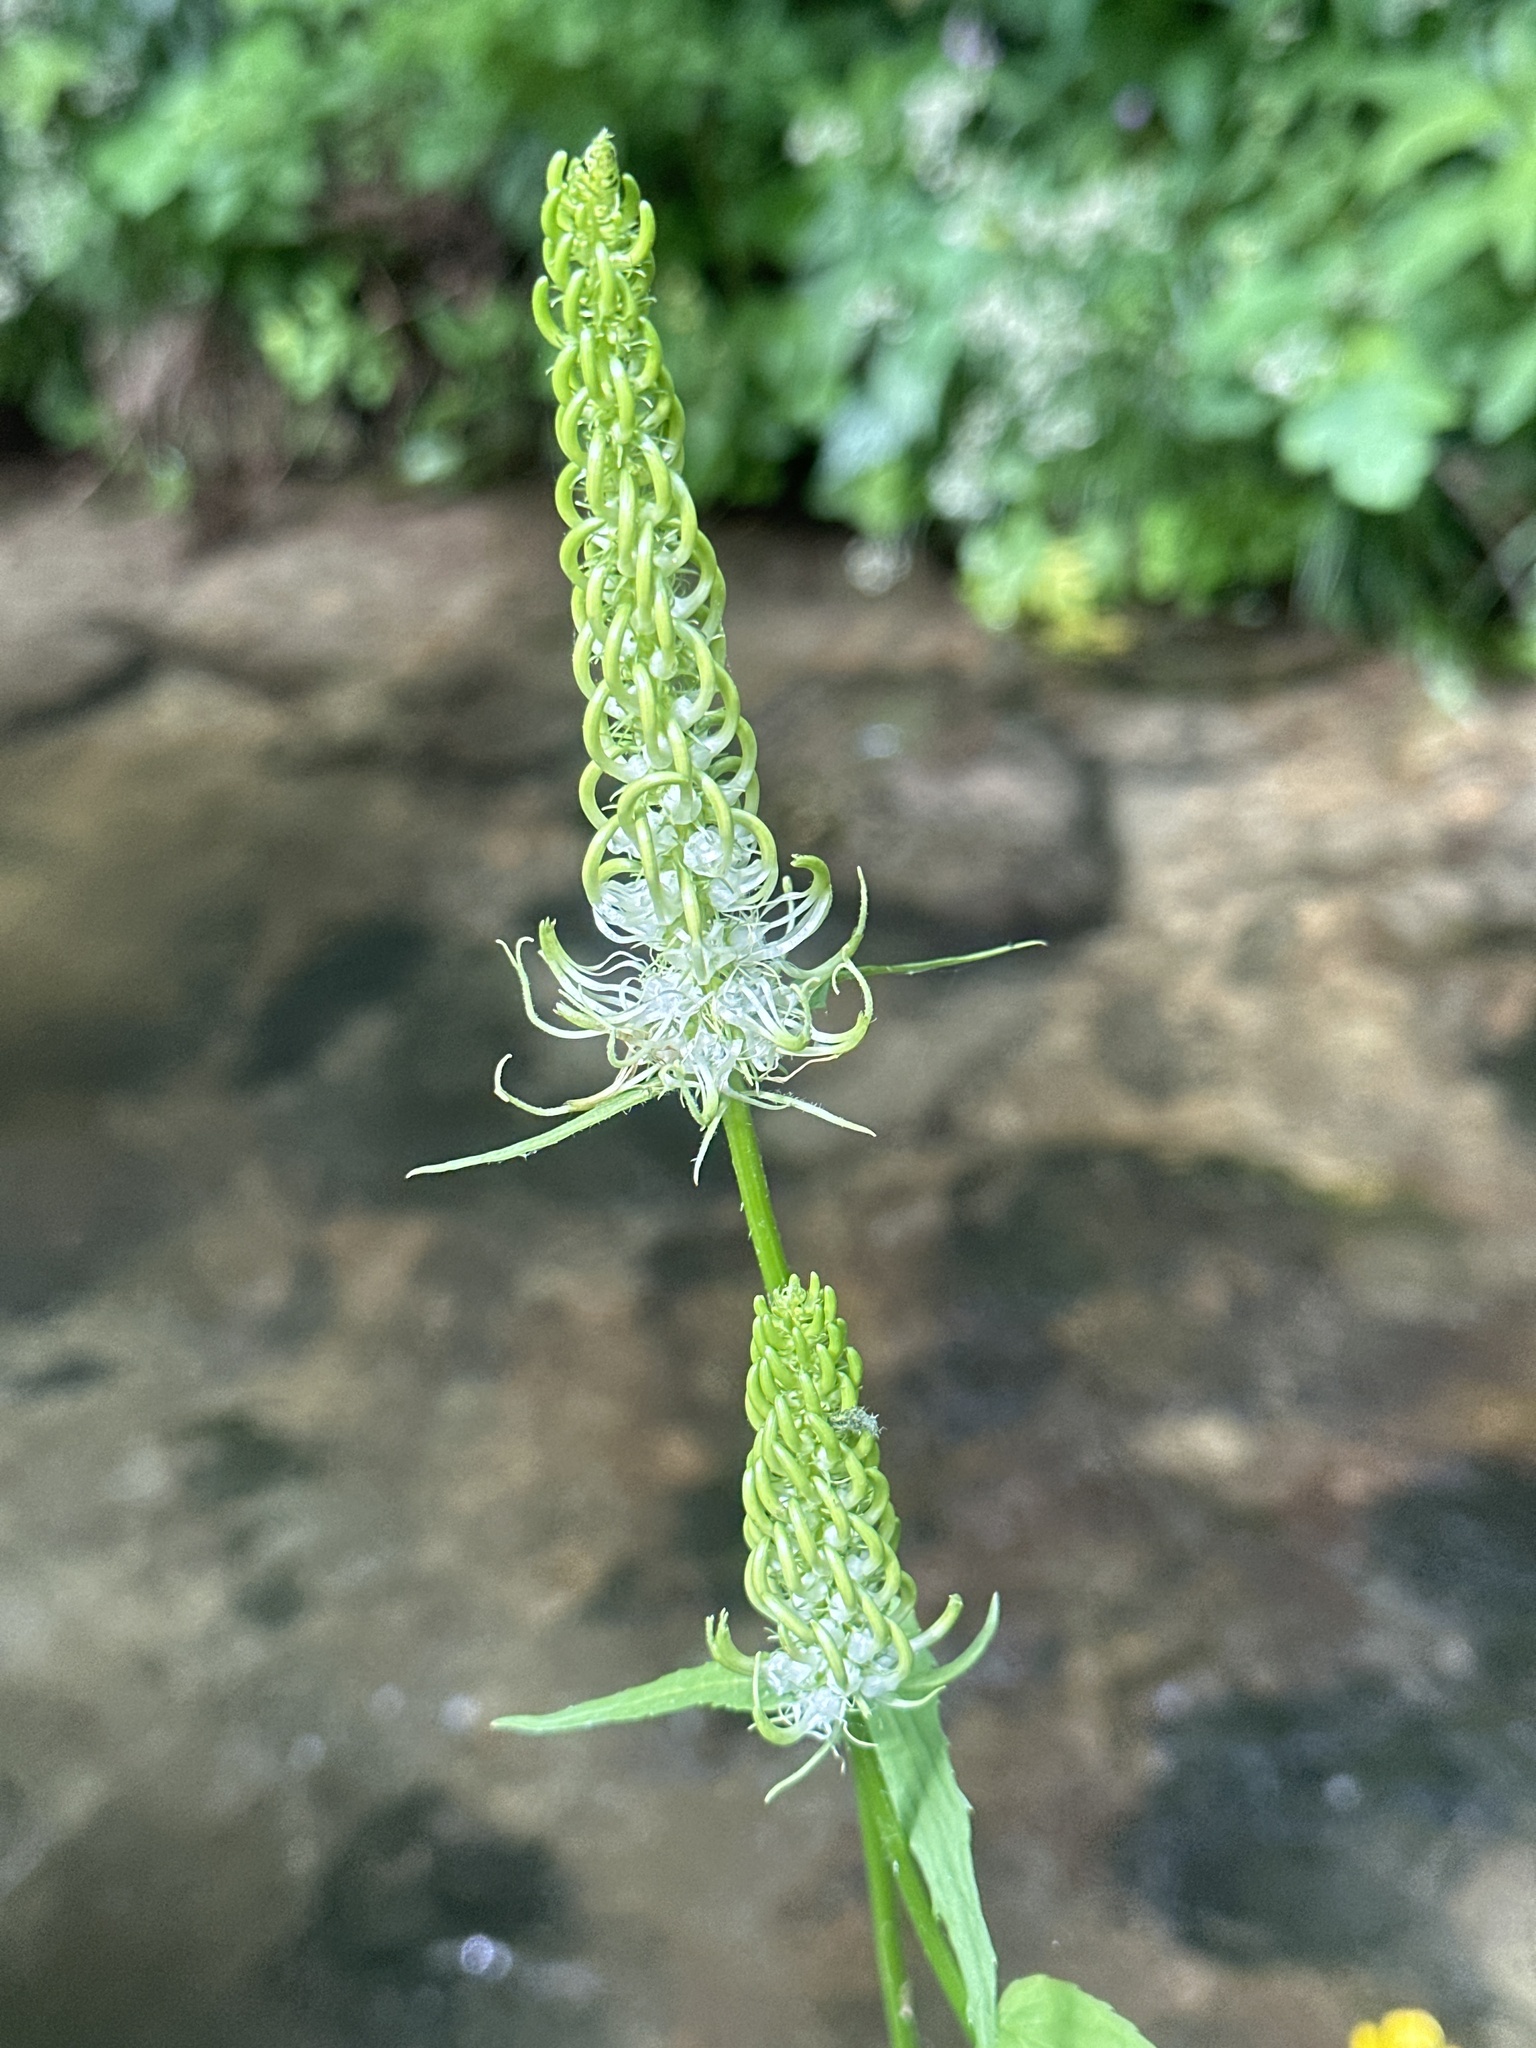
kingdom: Plantae
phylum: Tracheophyta
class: Magnoliopsida
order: Asterales
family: Campanulaceae
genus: Phyteuma
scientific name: Phyteuma spicatum
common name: Spiked rampion
